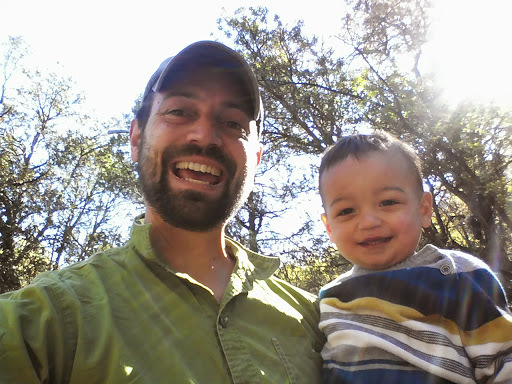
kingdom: Animalia
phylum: Chordata
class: Aves
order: Trogoniformes
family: Trogonidae
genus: Trogon
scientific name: Trogon elegans
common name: Elegant trogon
